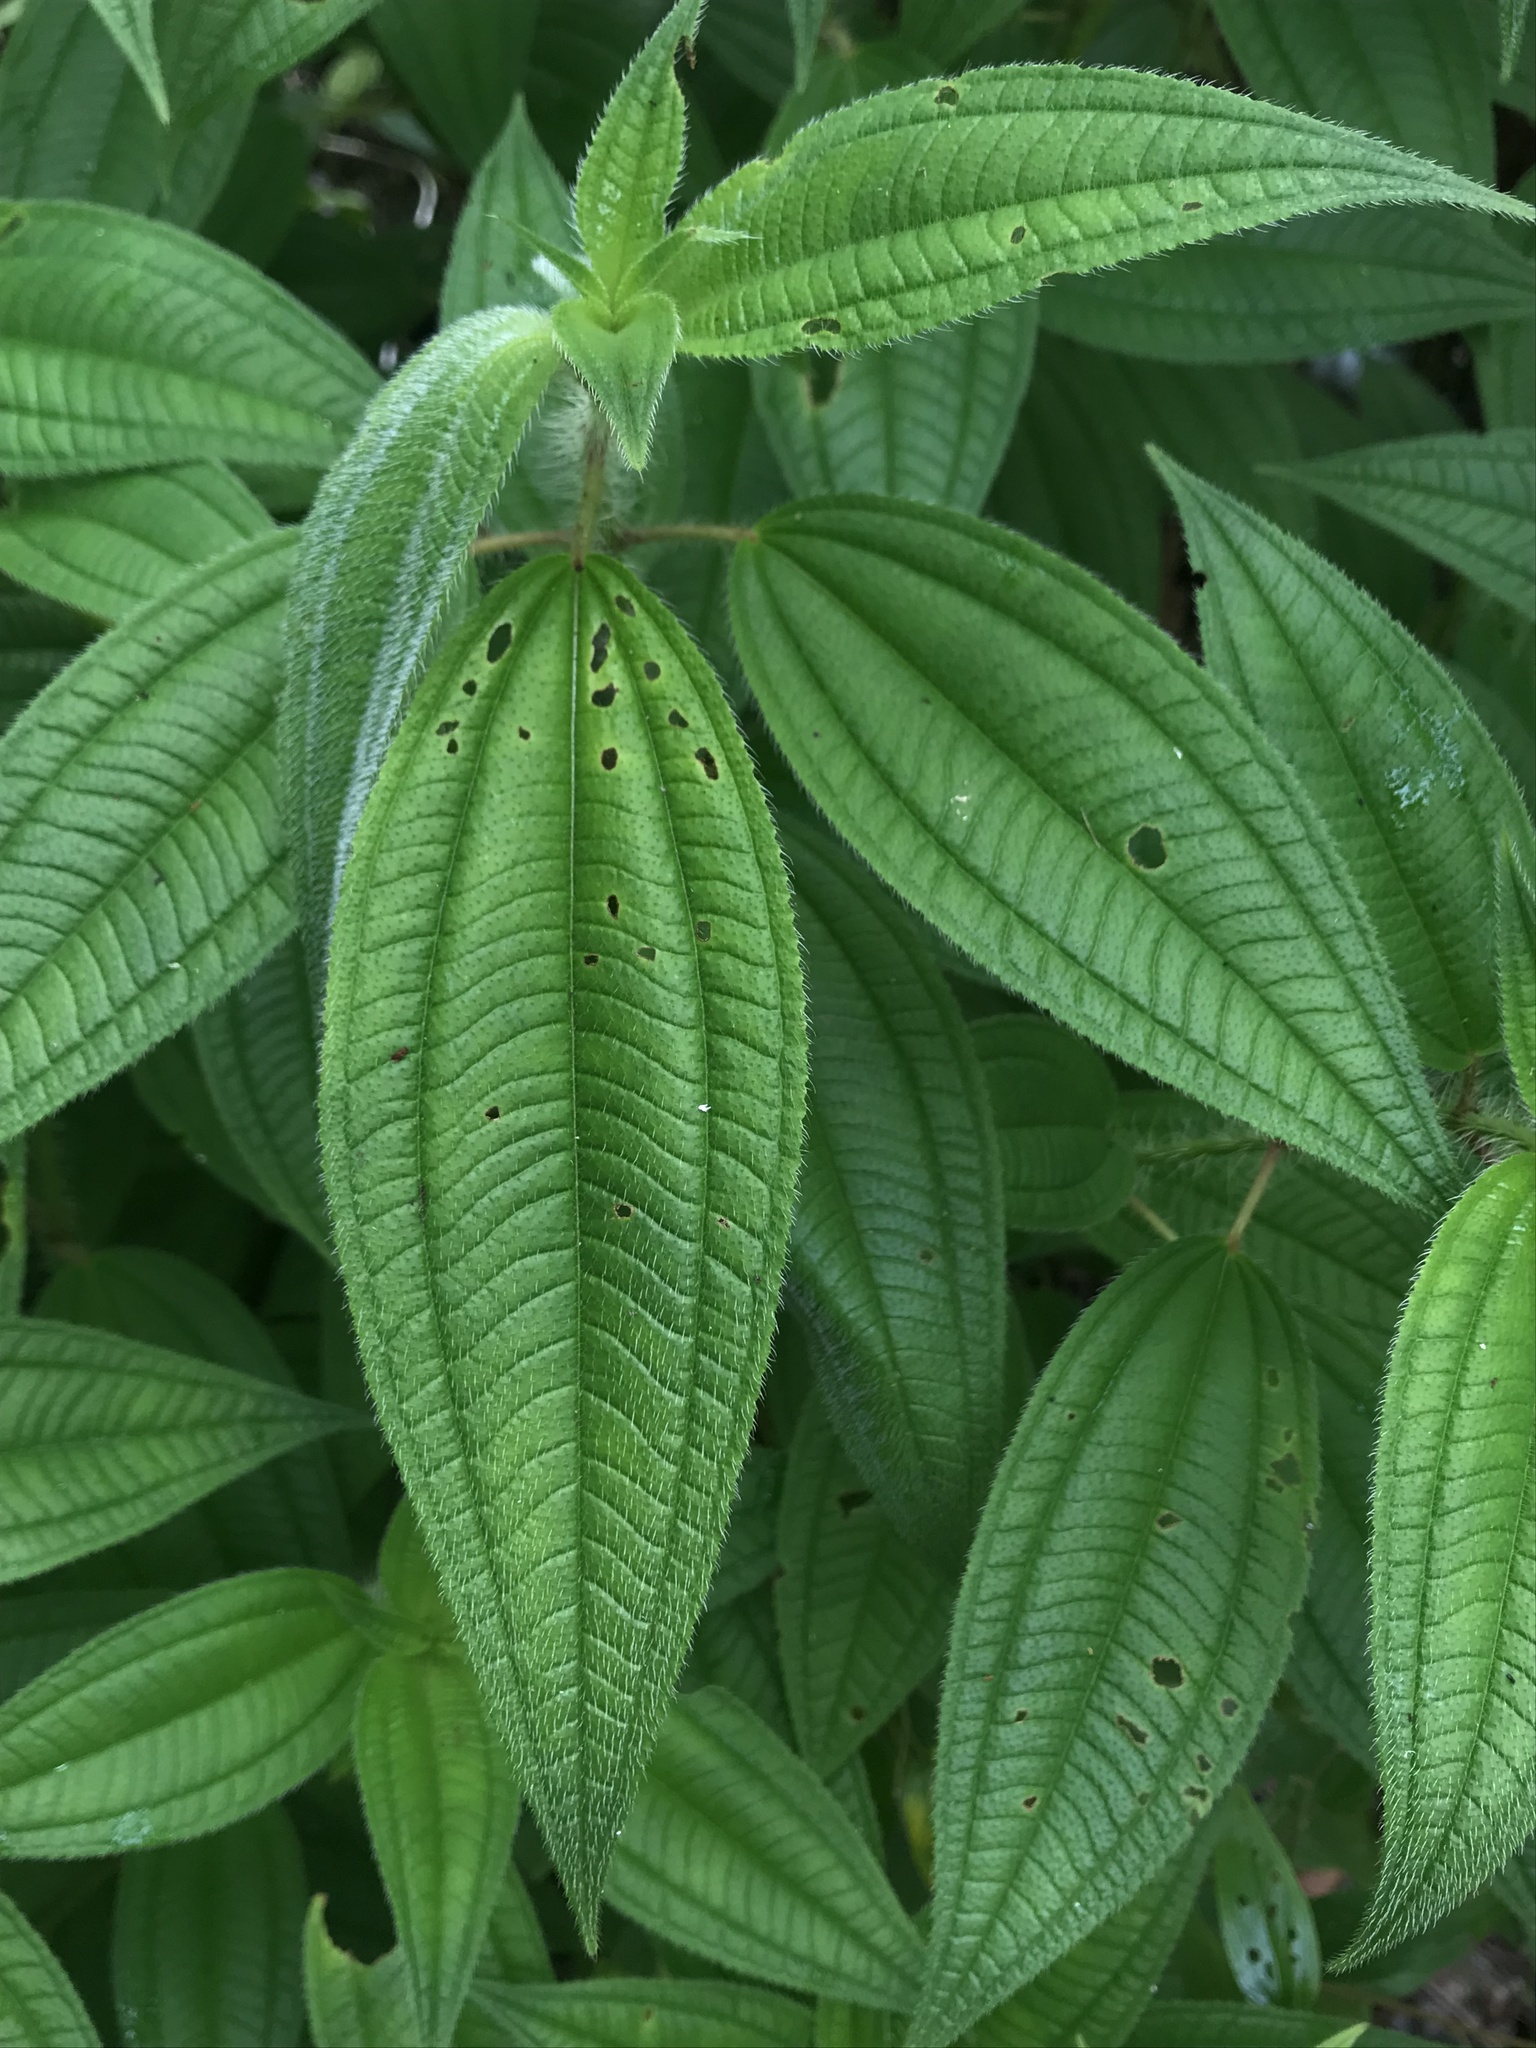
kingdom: Plantae
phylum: Tracheophyta
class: Magnoliopsida
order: Myrtales
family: Melastomataceae
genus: Miconia
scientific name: Miconia lacera
